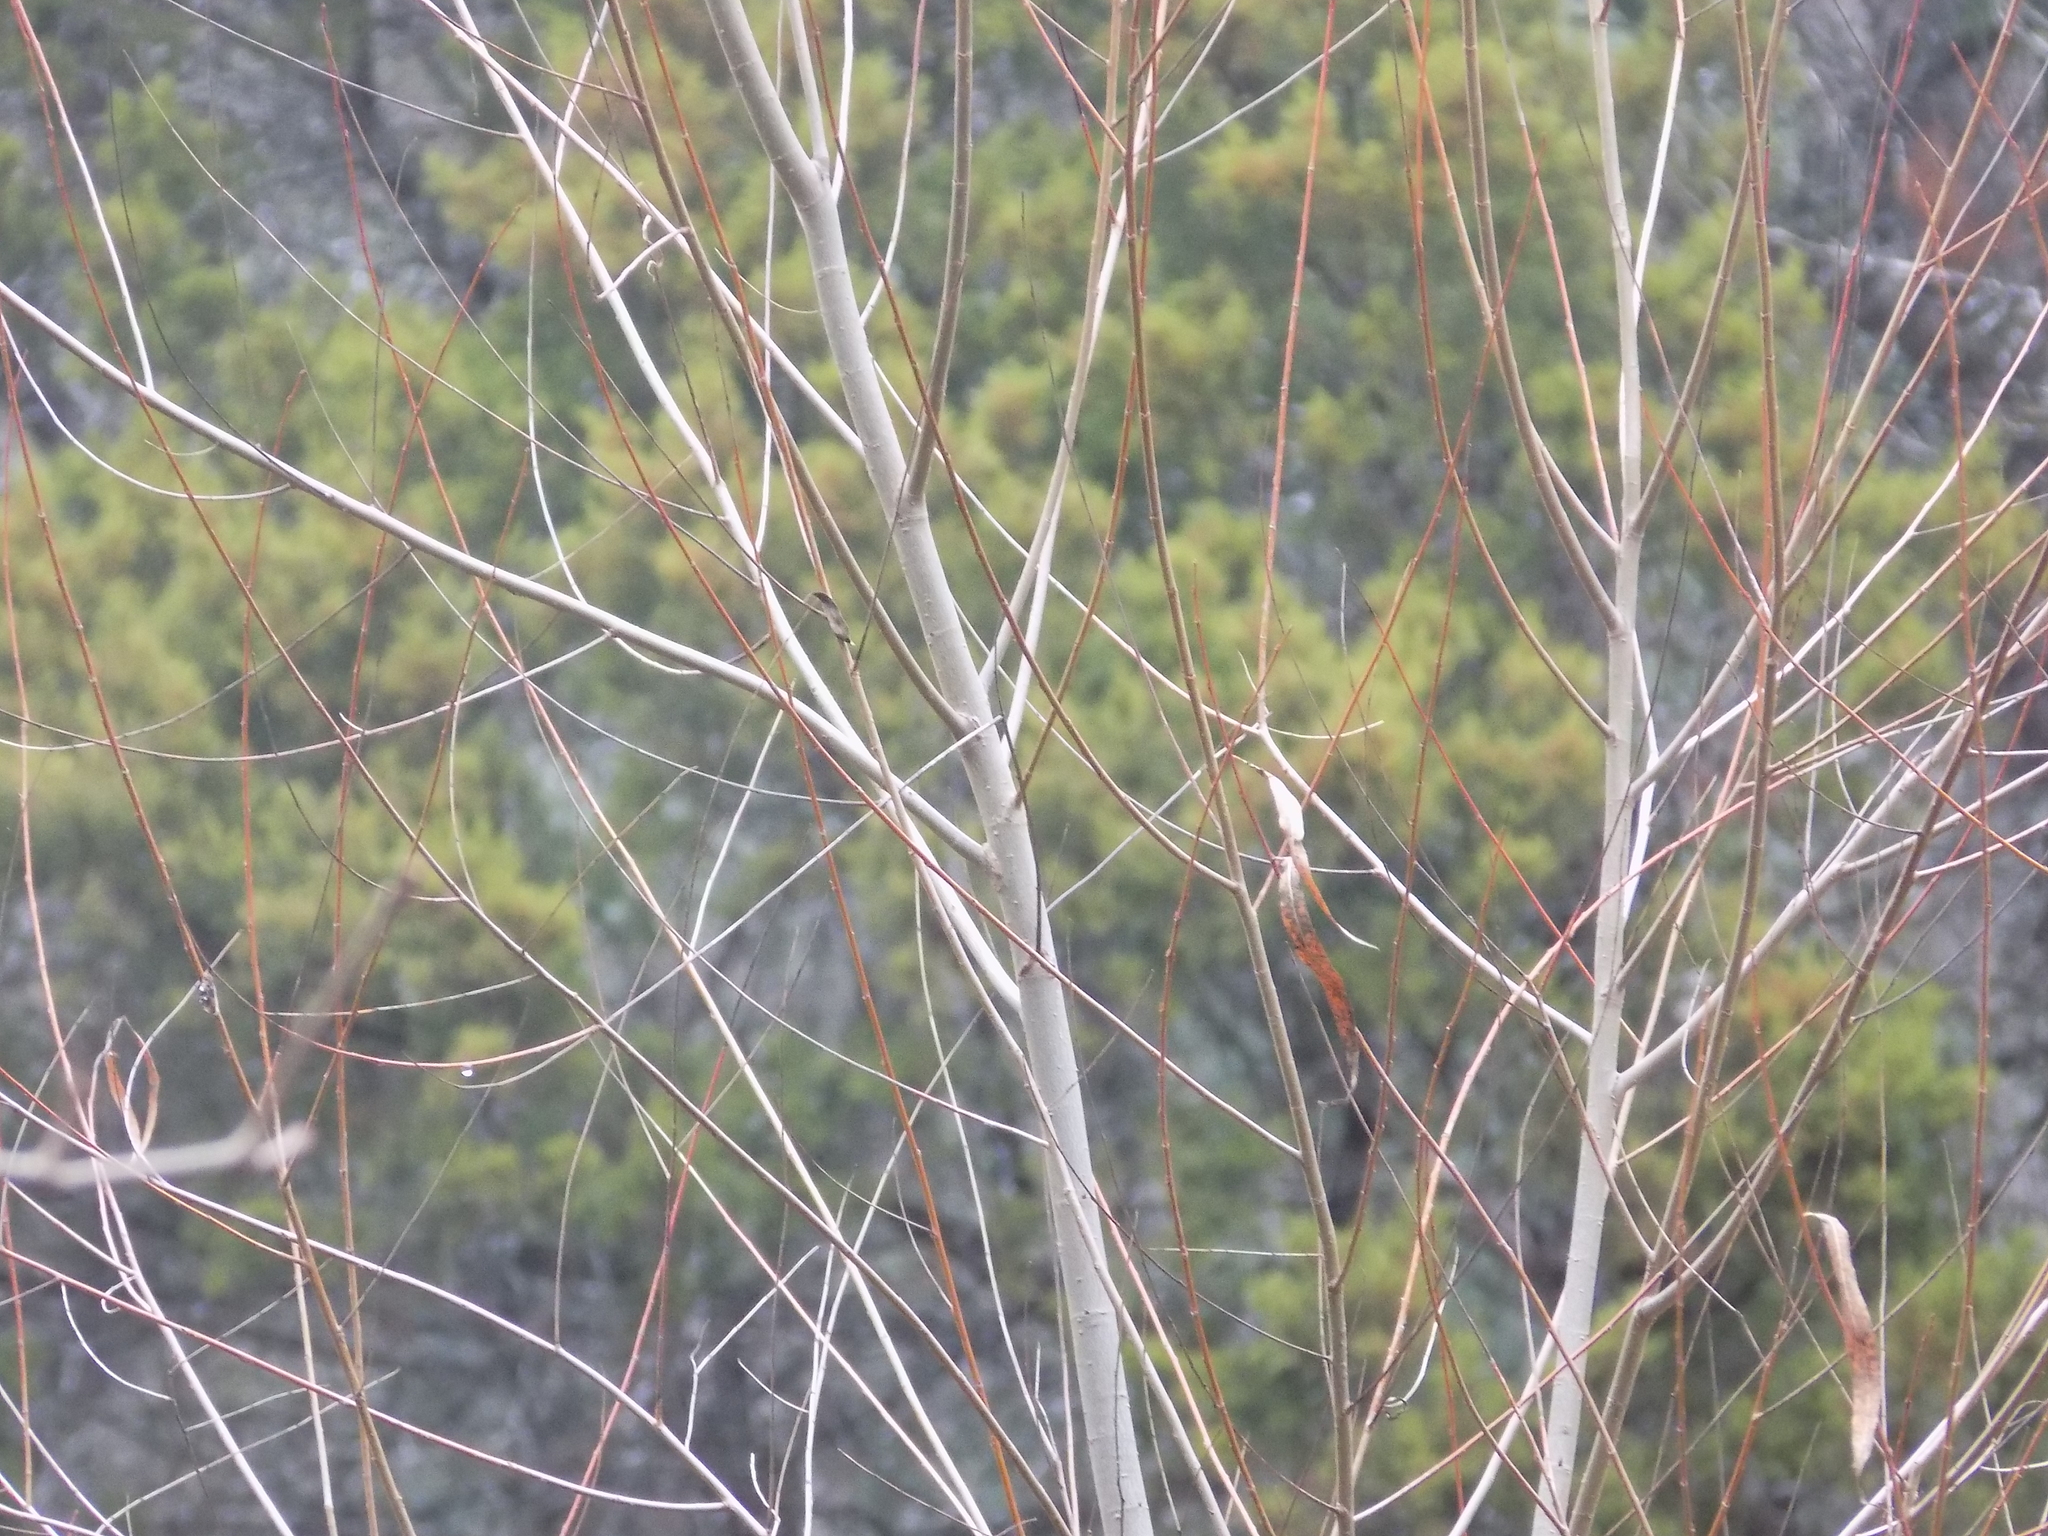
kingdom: Plantae
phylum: Tracheophyta
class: Magnoliopsida
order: Malpighiales
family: Salicaceae
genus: Salix
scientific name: Salix nigra
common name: Black willow
